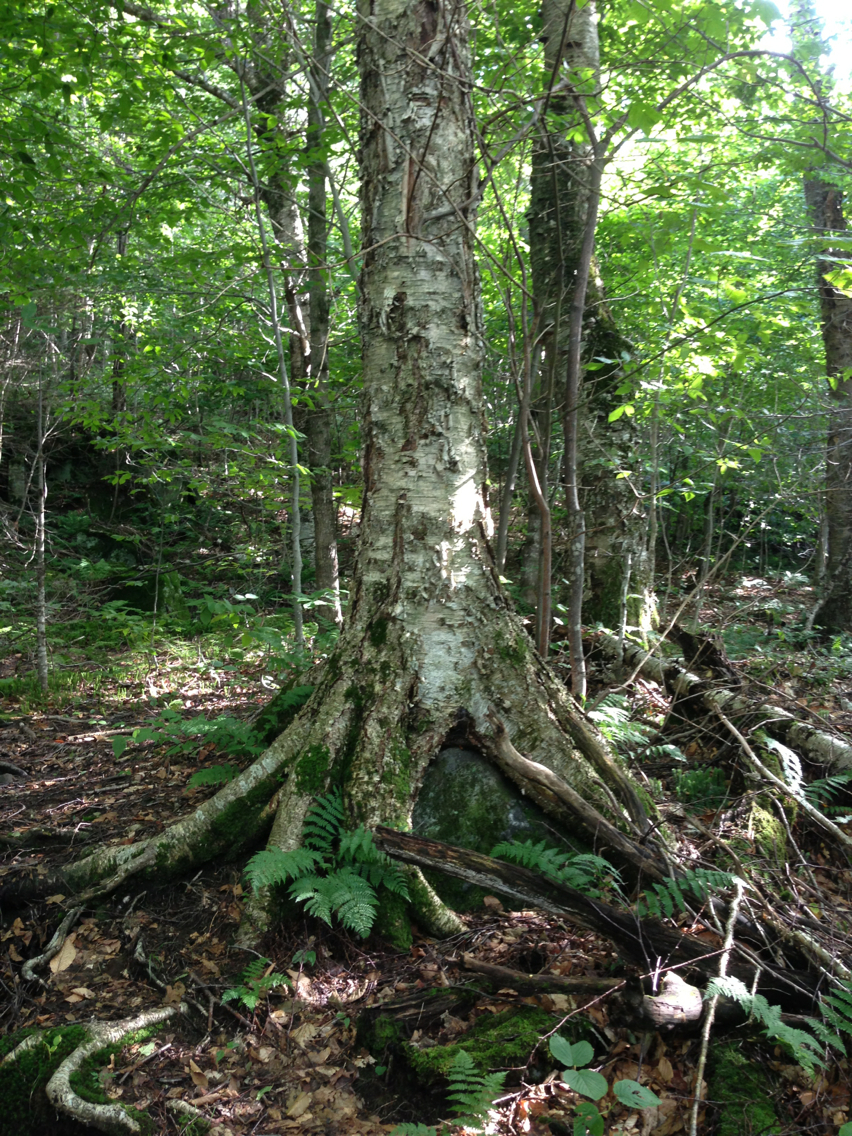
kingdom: Plantae
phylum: Tracheophyta
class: Magnoliopsida
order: Fagales
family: Betulaceae
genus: Betula
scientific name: Betula alleghaniensis
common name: Yellow birch
